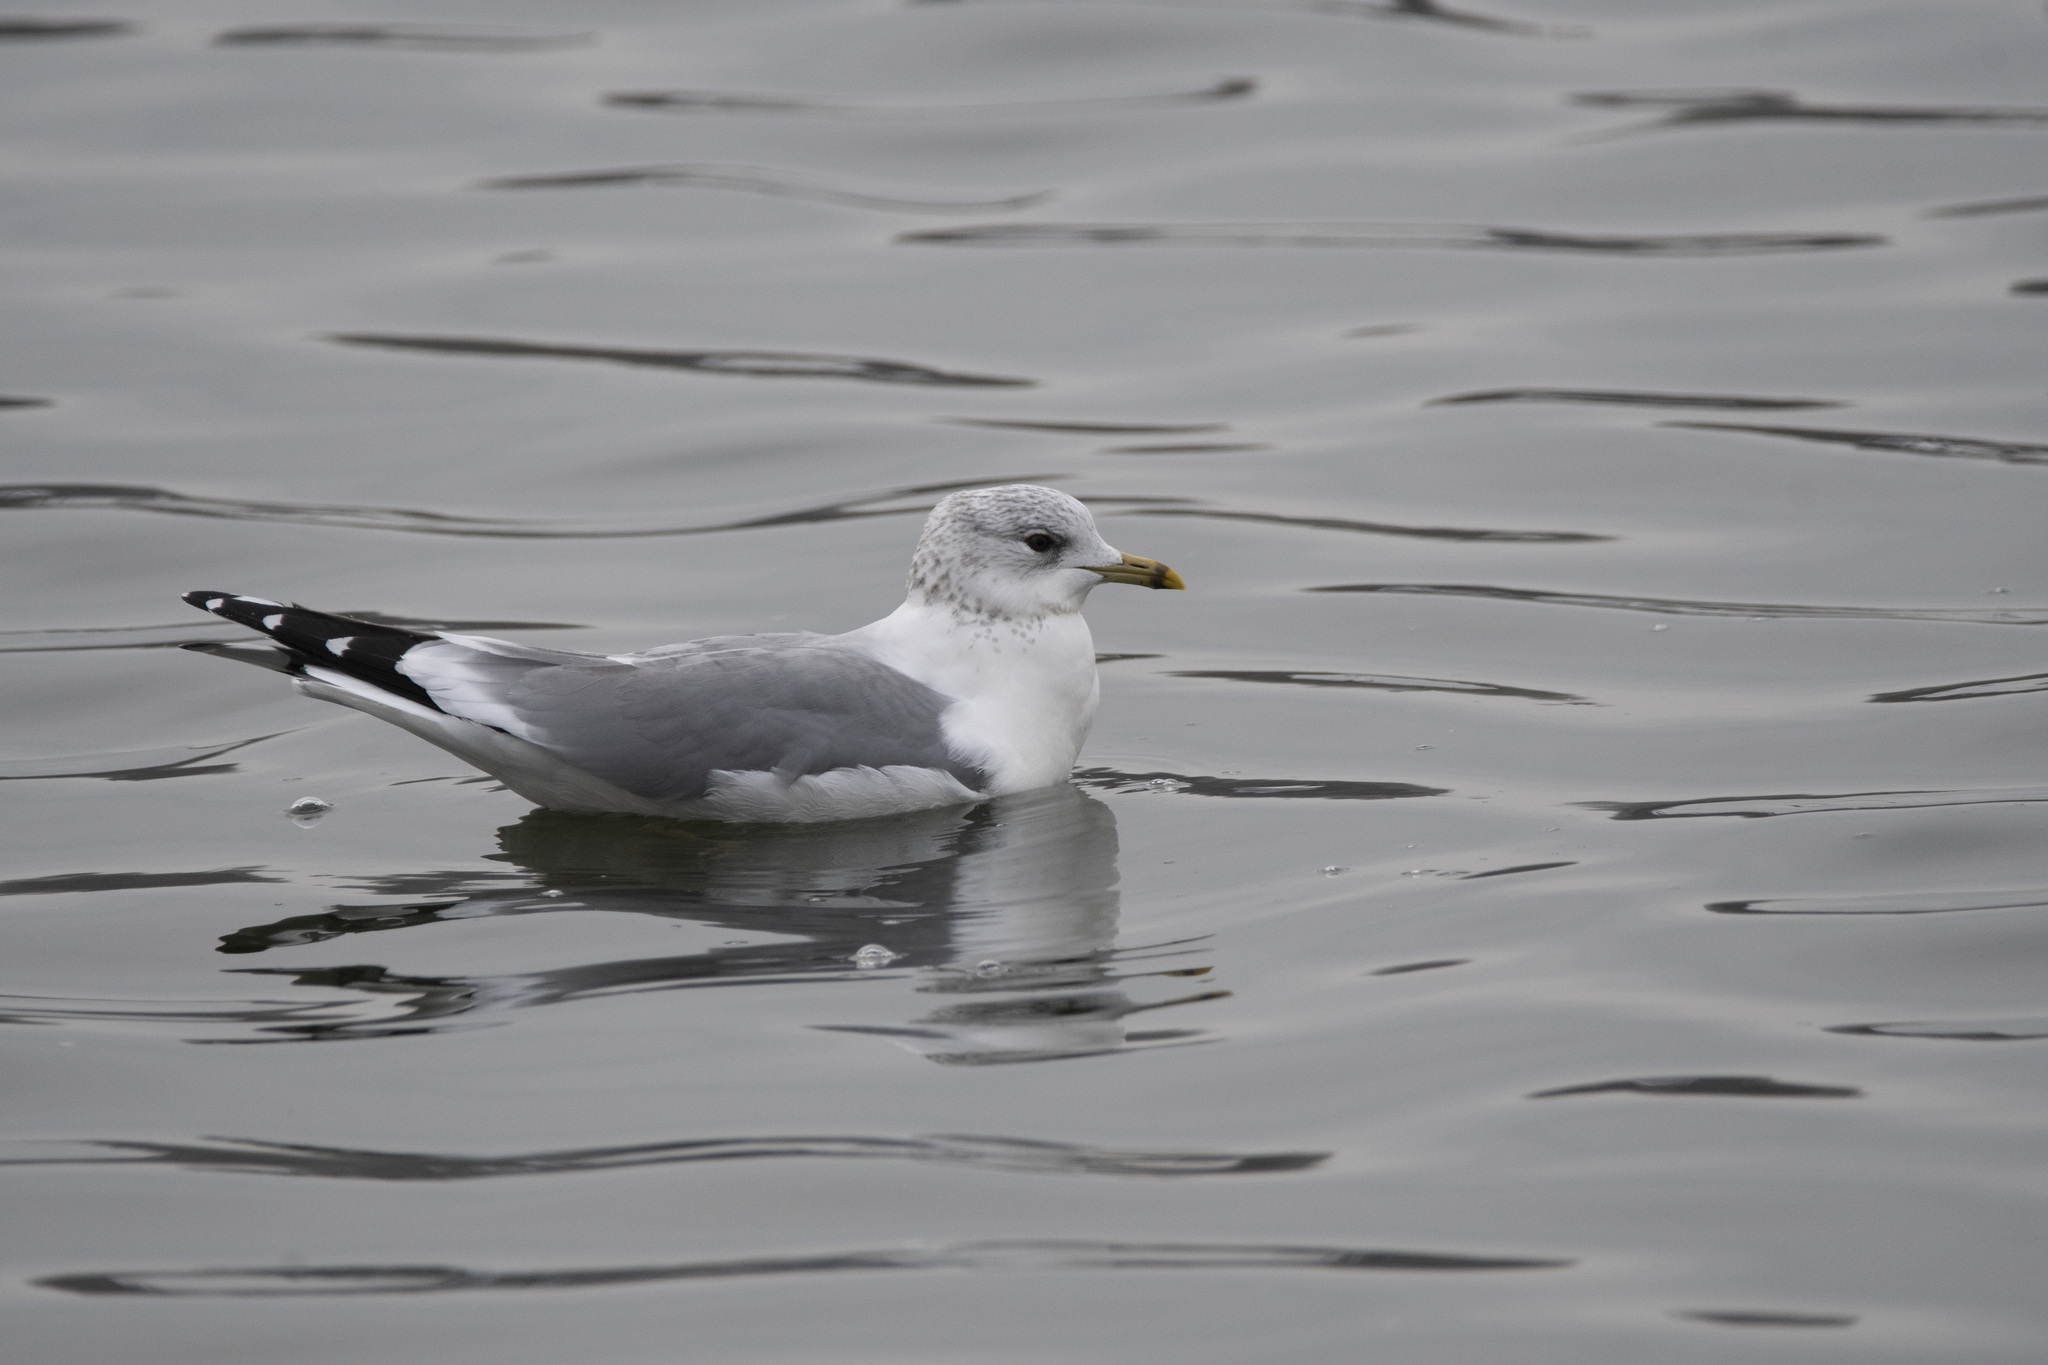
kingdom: Animalia
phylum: Chordata
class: Aves
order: Charadriiformes
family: Laridae
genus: Larus
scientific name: Larus canus
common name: Mew gull
